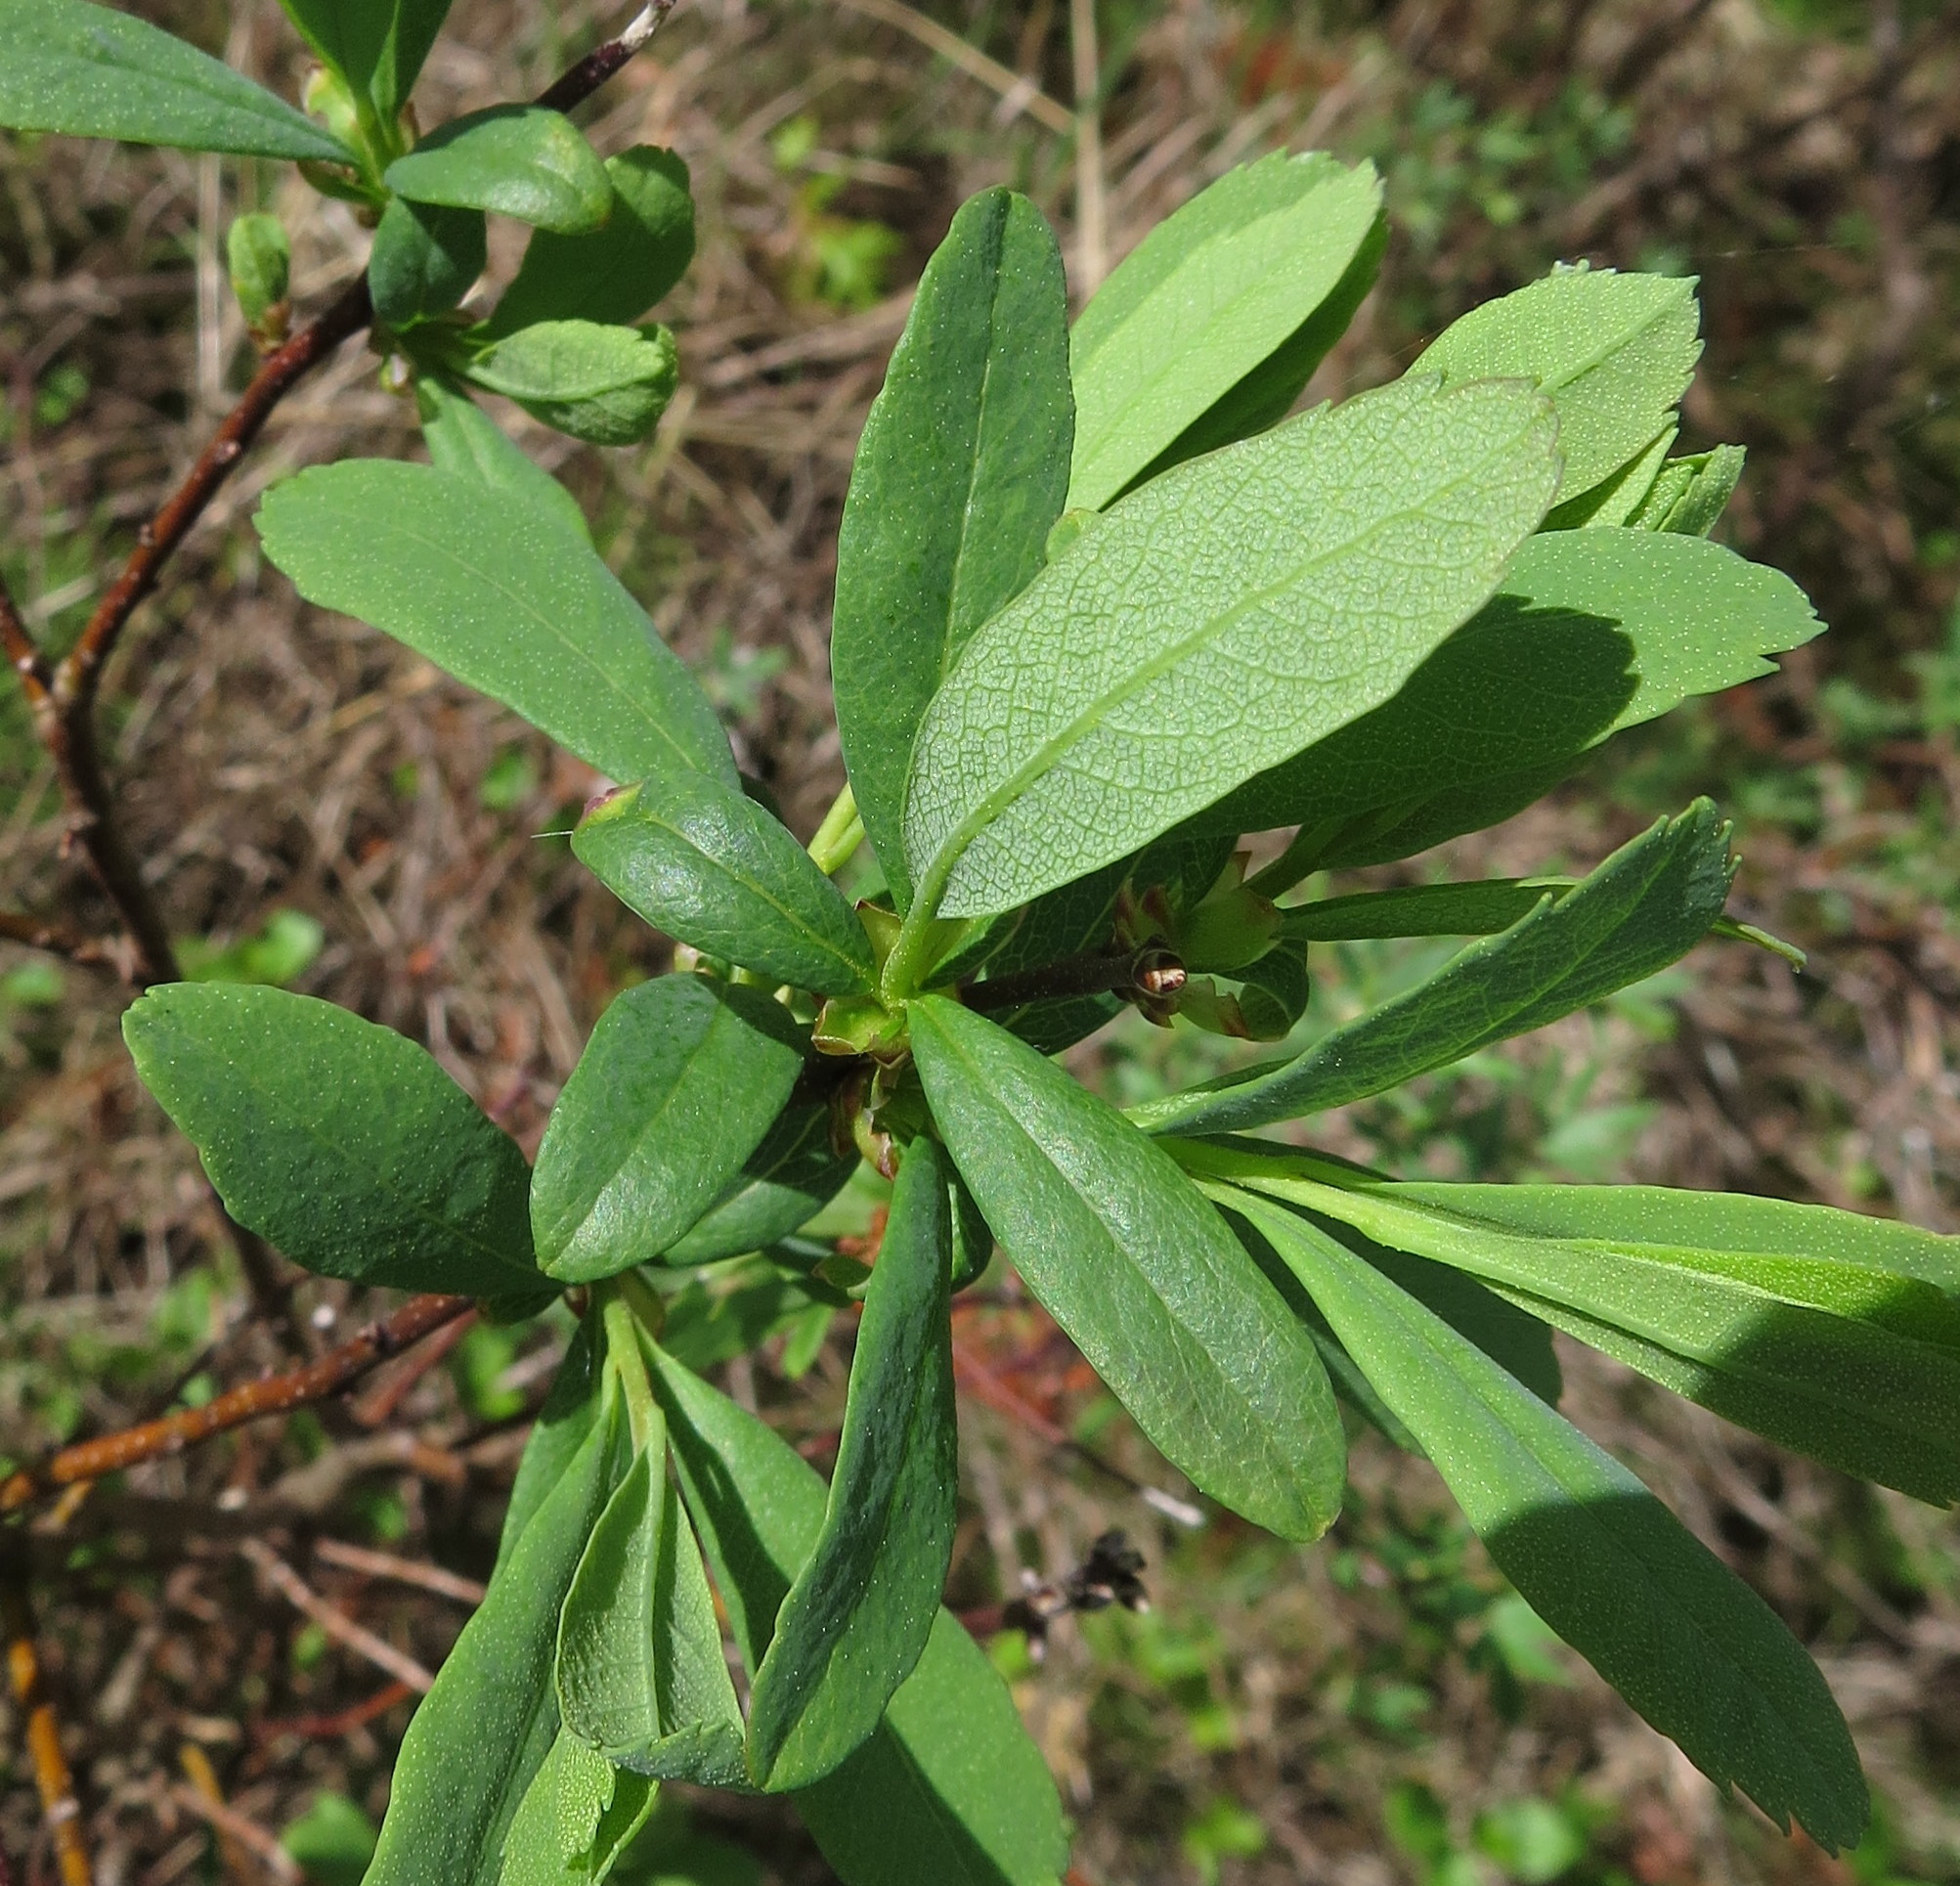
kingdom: Plantae
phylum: Tracheophyta
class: Magnoliopsida
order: Fagales
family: Myricaceae
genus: Myrica
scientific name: Myrica gale
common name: Sweet gale
